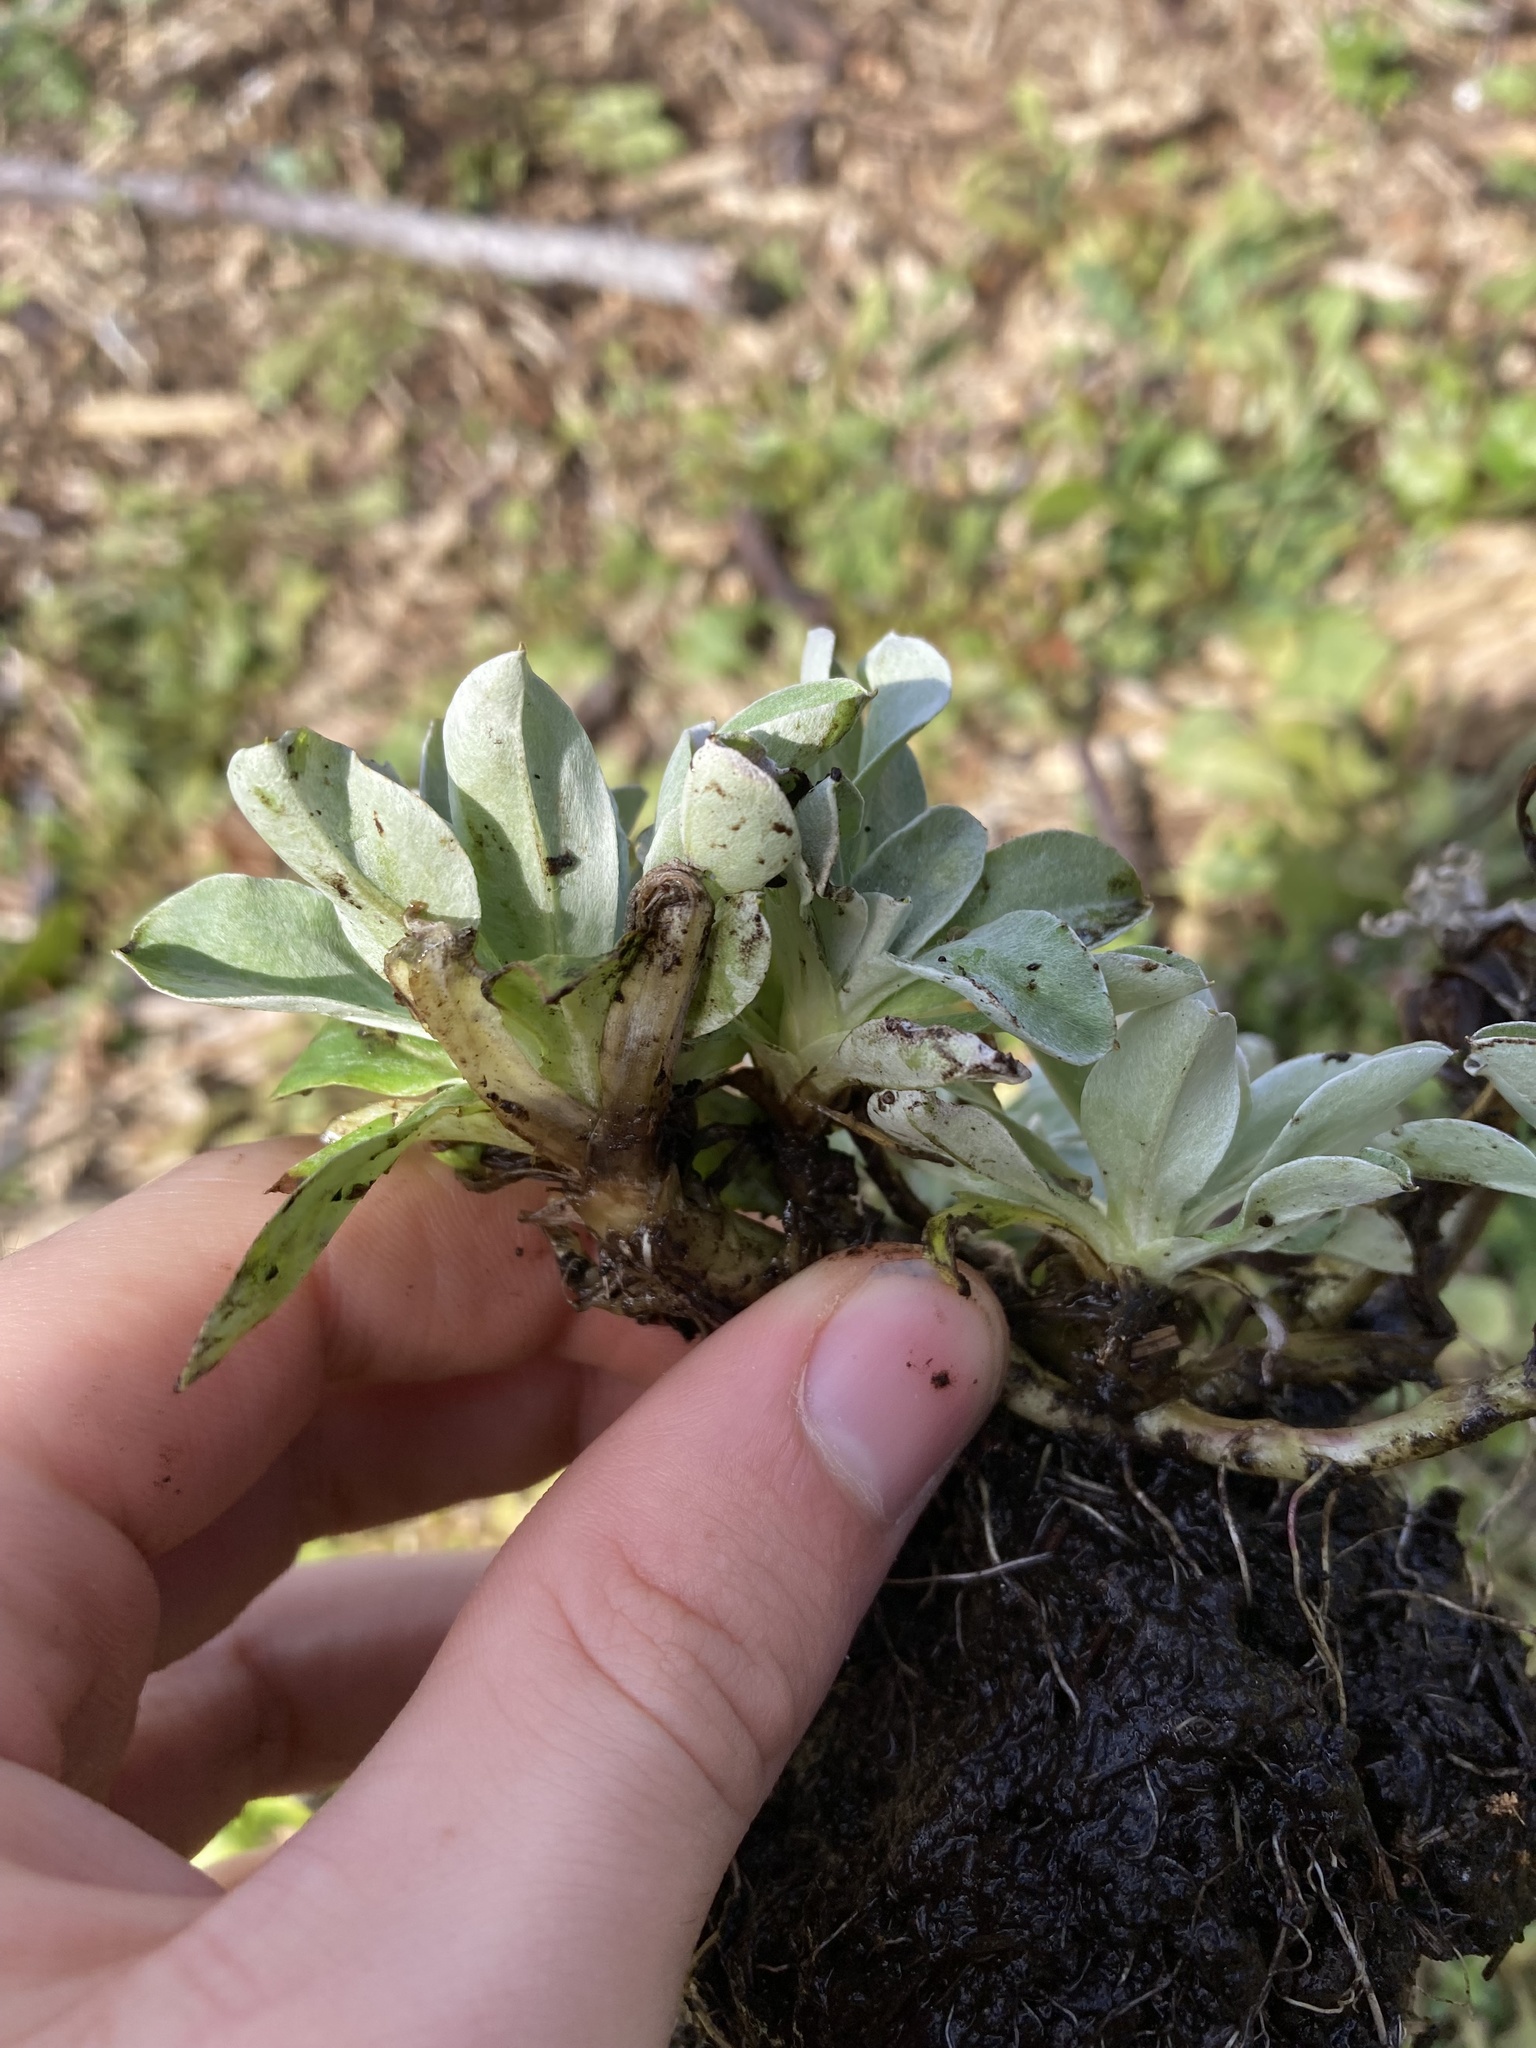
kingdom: Plantae
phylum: Tracheophyta
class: Magnoliopsida
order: Asterales
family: Asteraceae
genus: Gamochaeta
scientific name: Gamochaeta ustulata
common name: Pacific cudweed
